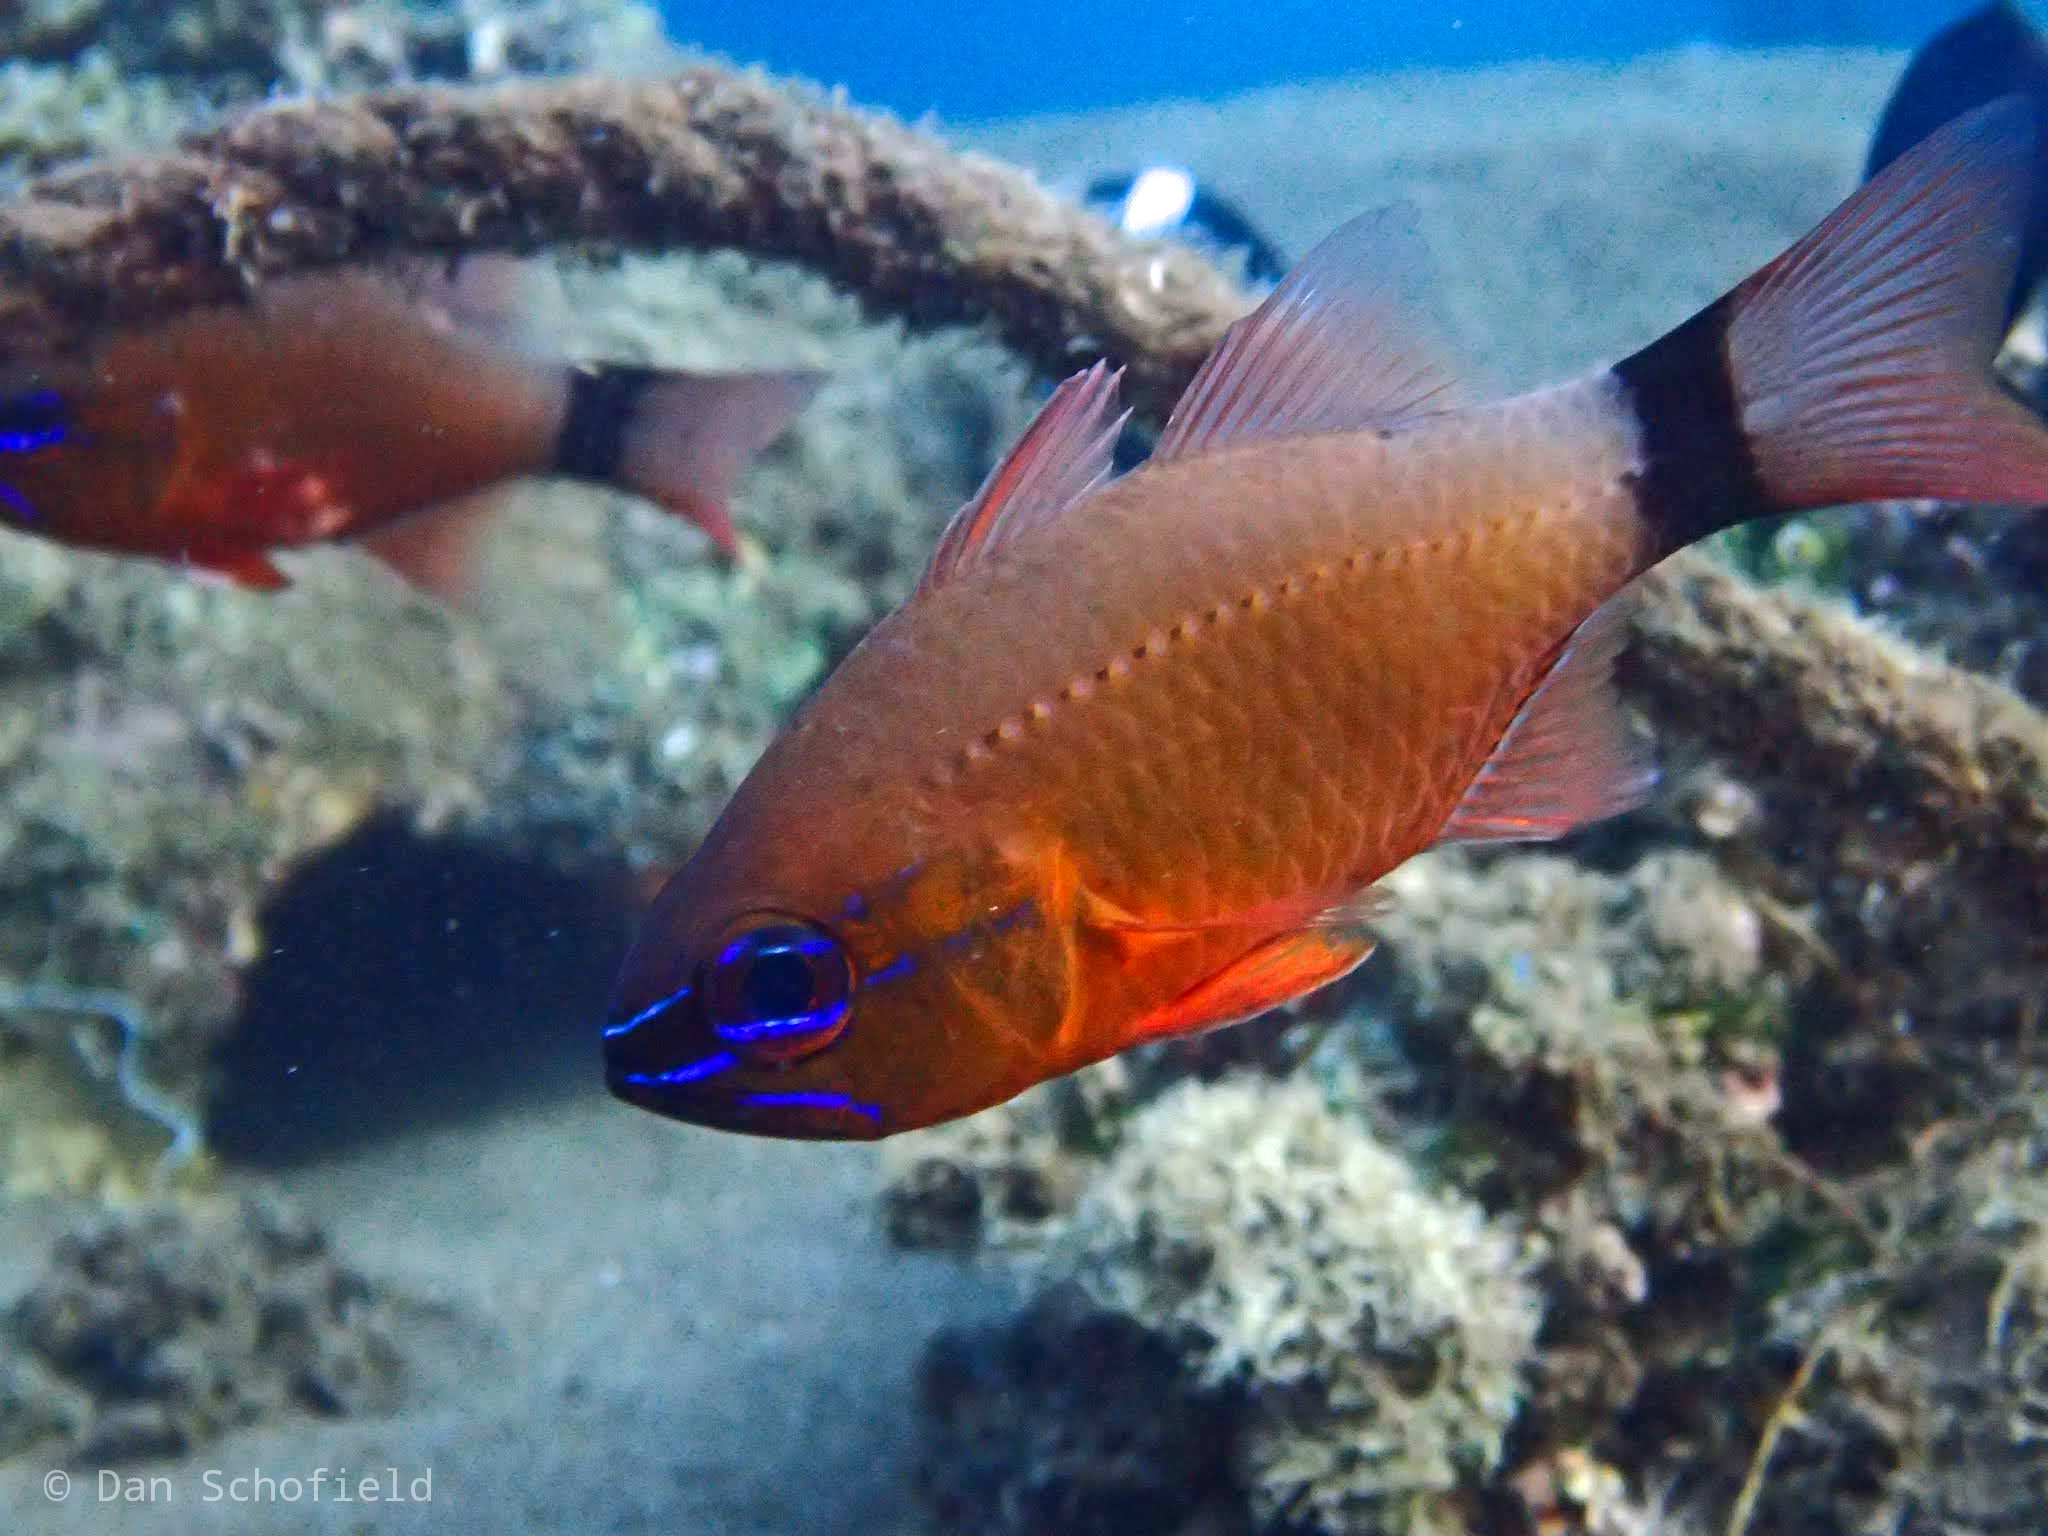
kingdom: Animalia
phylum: Chordata
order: Perciformes
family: Apogonidae
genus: Ostorhinchus
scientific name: Ostorhinchus aureus
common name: Ring-tailed cardinalfish
